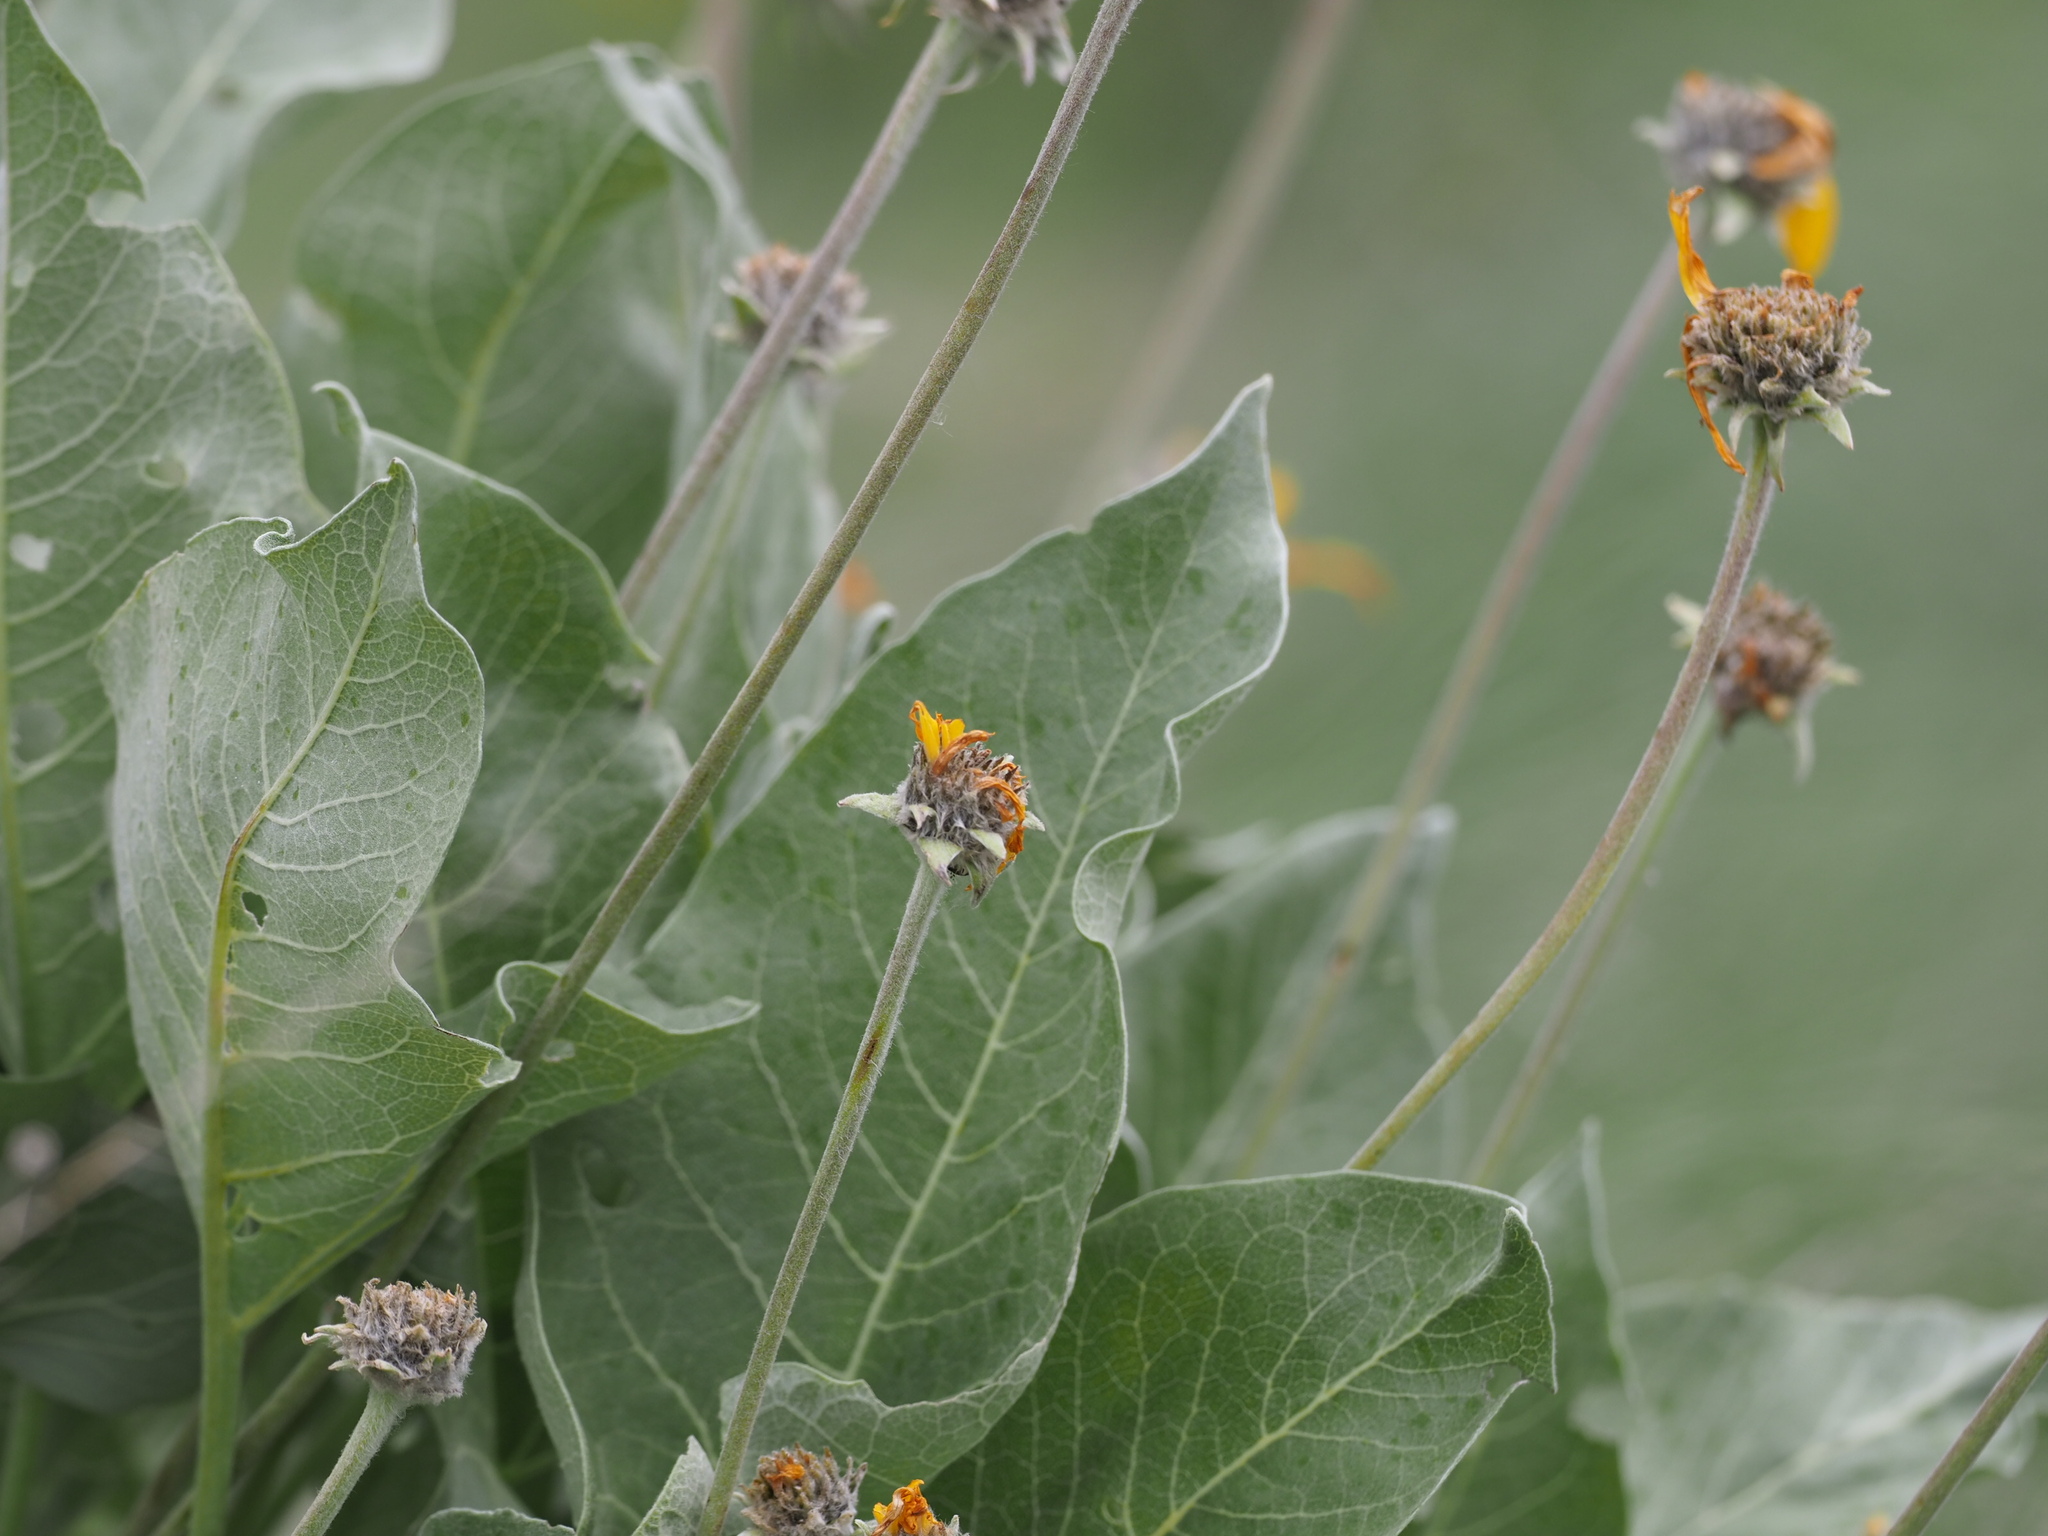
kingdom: Plantae
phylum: Tracheophyta
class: Magnoliopsida
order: Asterales
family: Asteraceae
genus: Wyethia
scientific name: Wyethia sagittata
